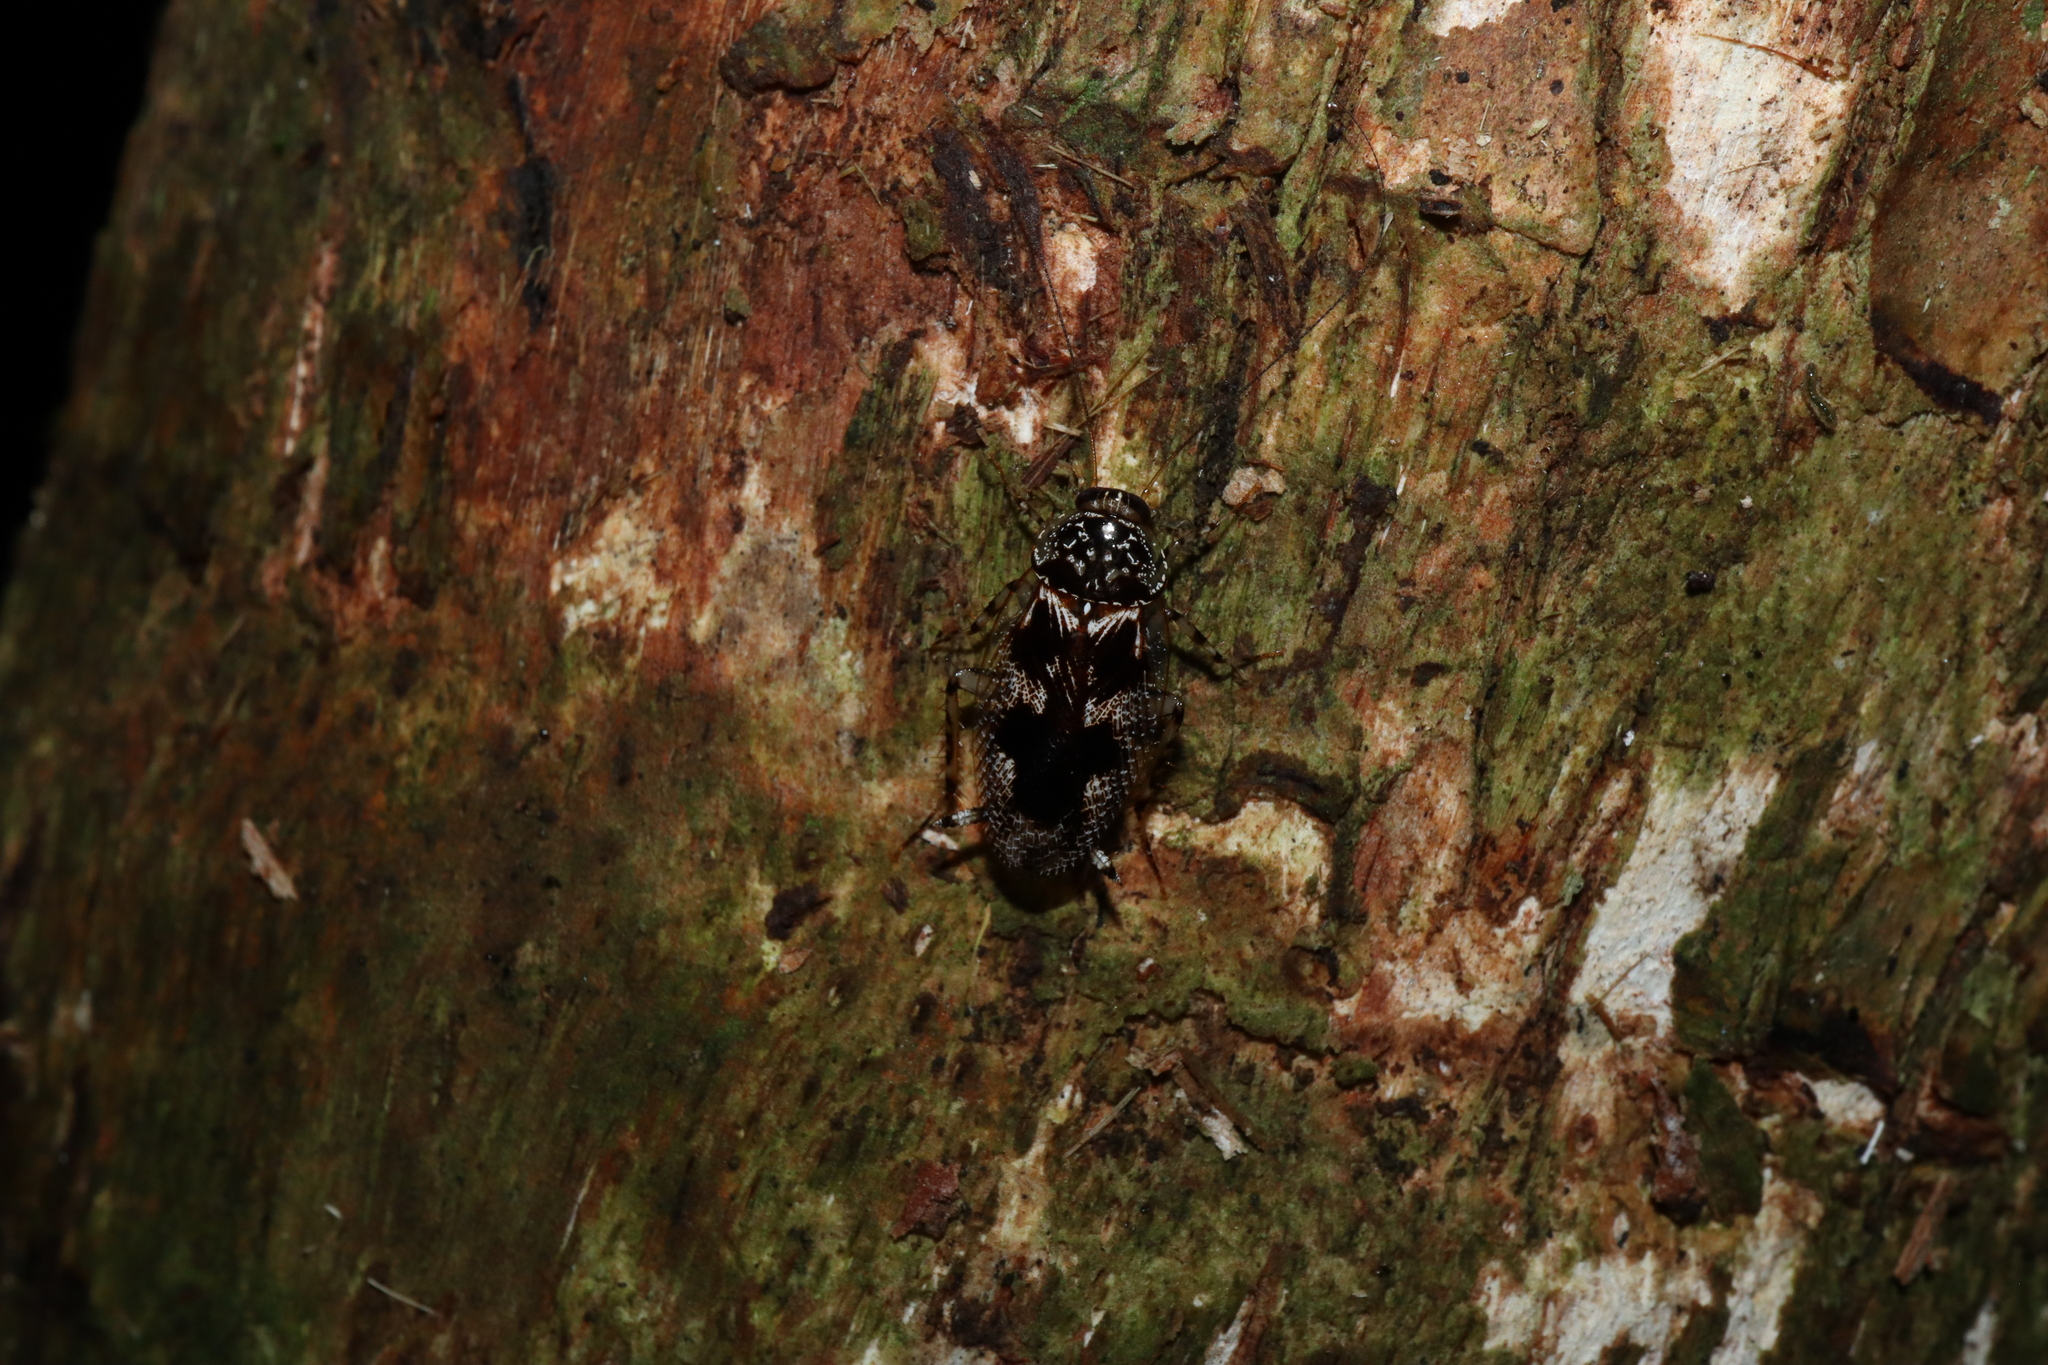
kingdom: Animalia
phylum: Arthropoda
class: Insecta
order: Blattodea
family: Ectobiidae
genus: Allacta
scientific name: Allacta australiensis
